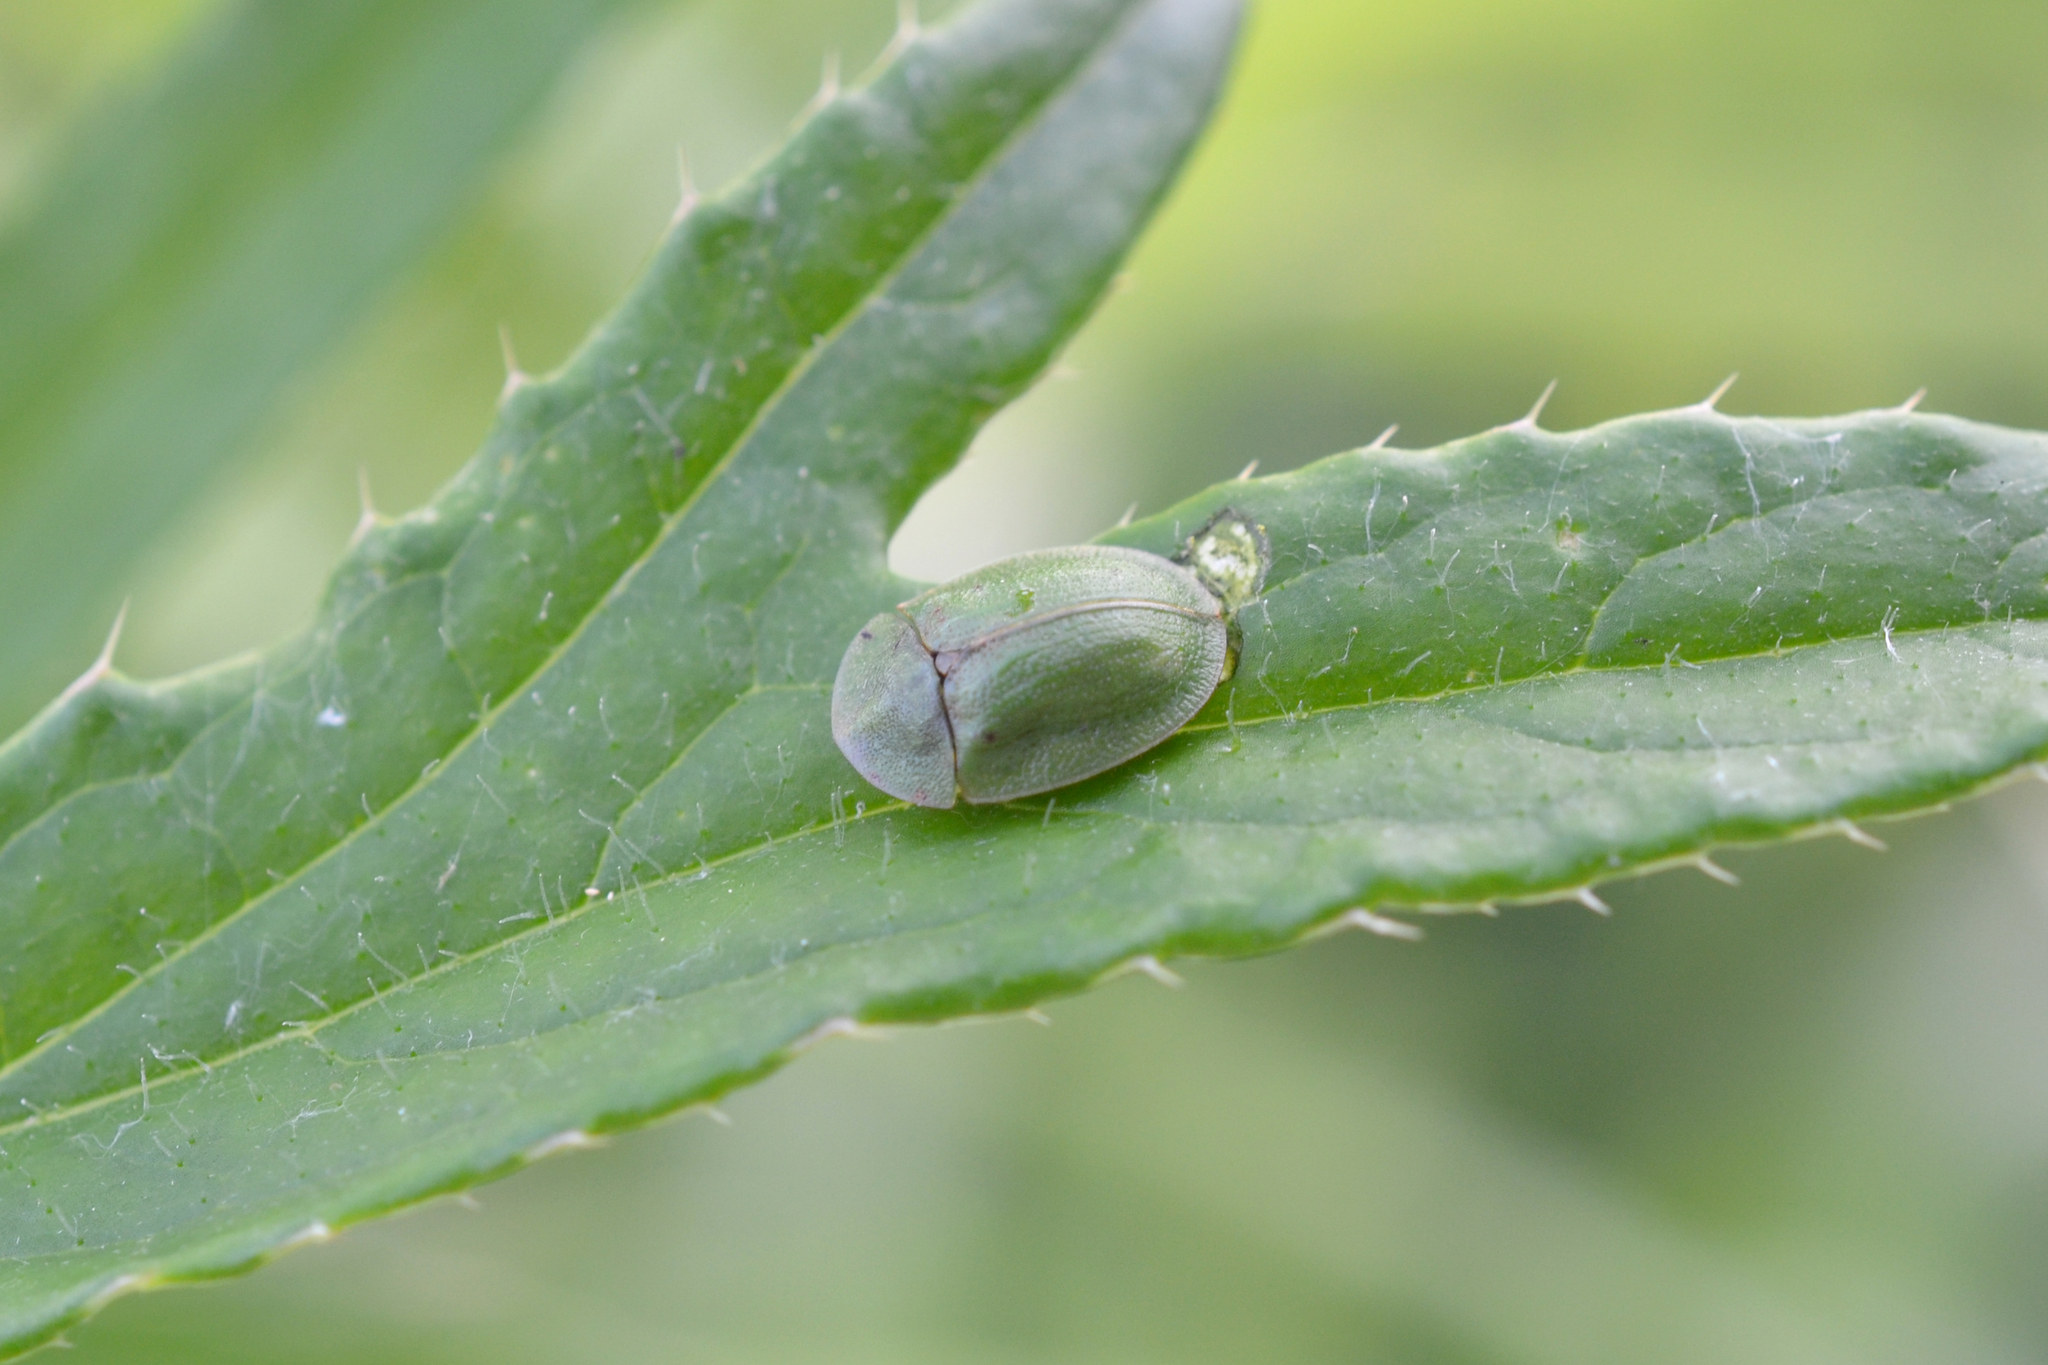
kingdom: Animalia
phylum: Arthropoda
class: Insecta
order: Coleoptera
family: Chrysomelidae
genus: Cassida
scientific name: Cassida rubiginosa
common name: Thistle tortoise beetle
